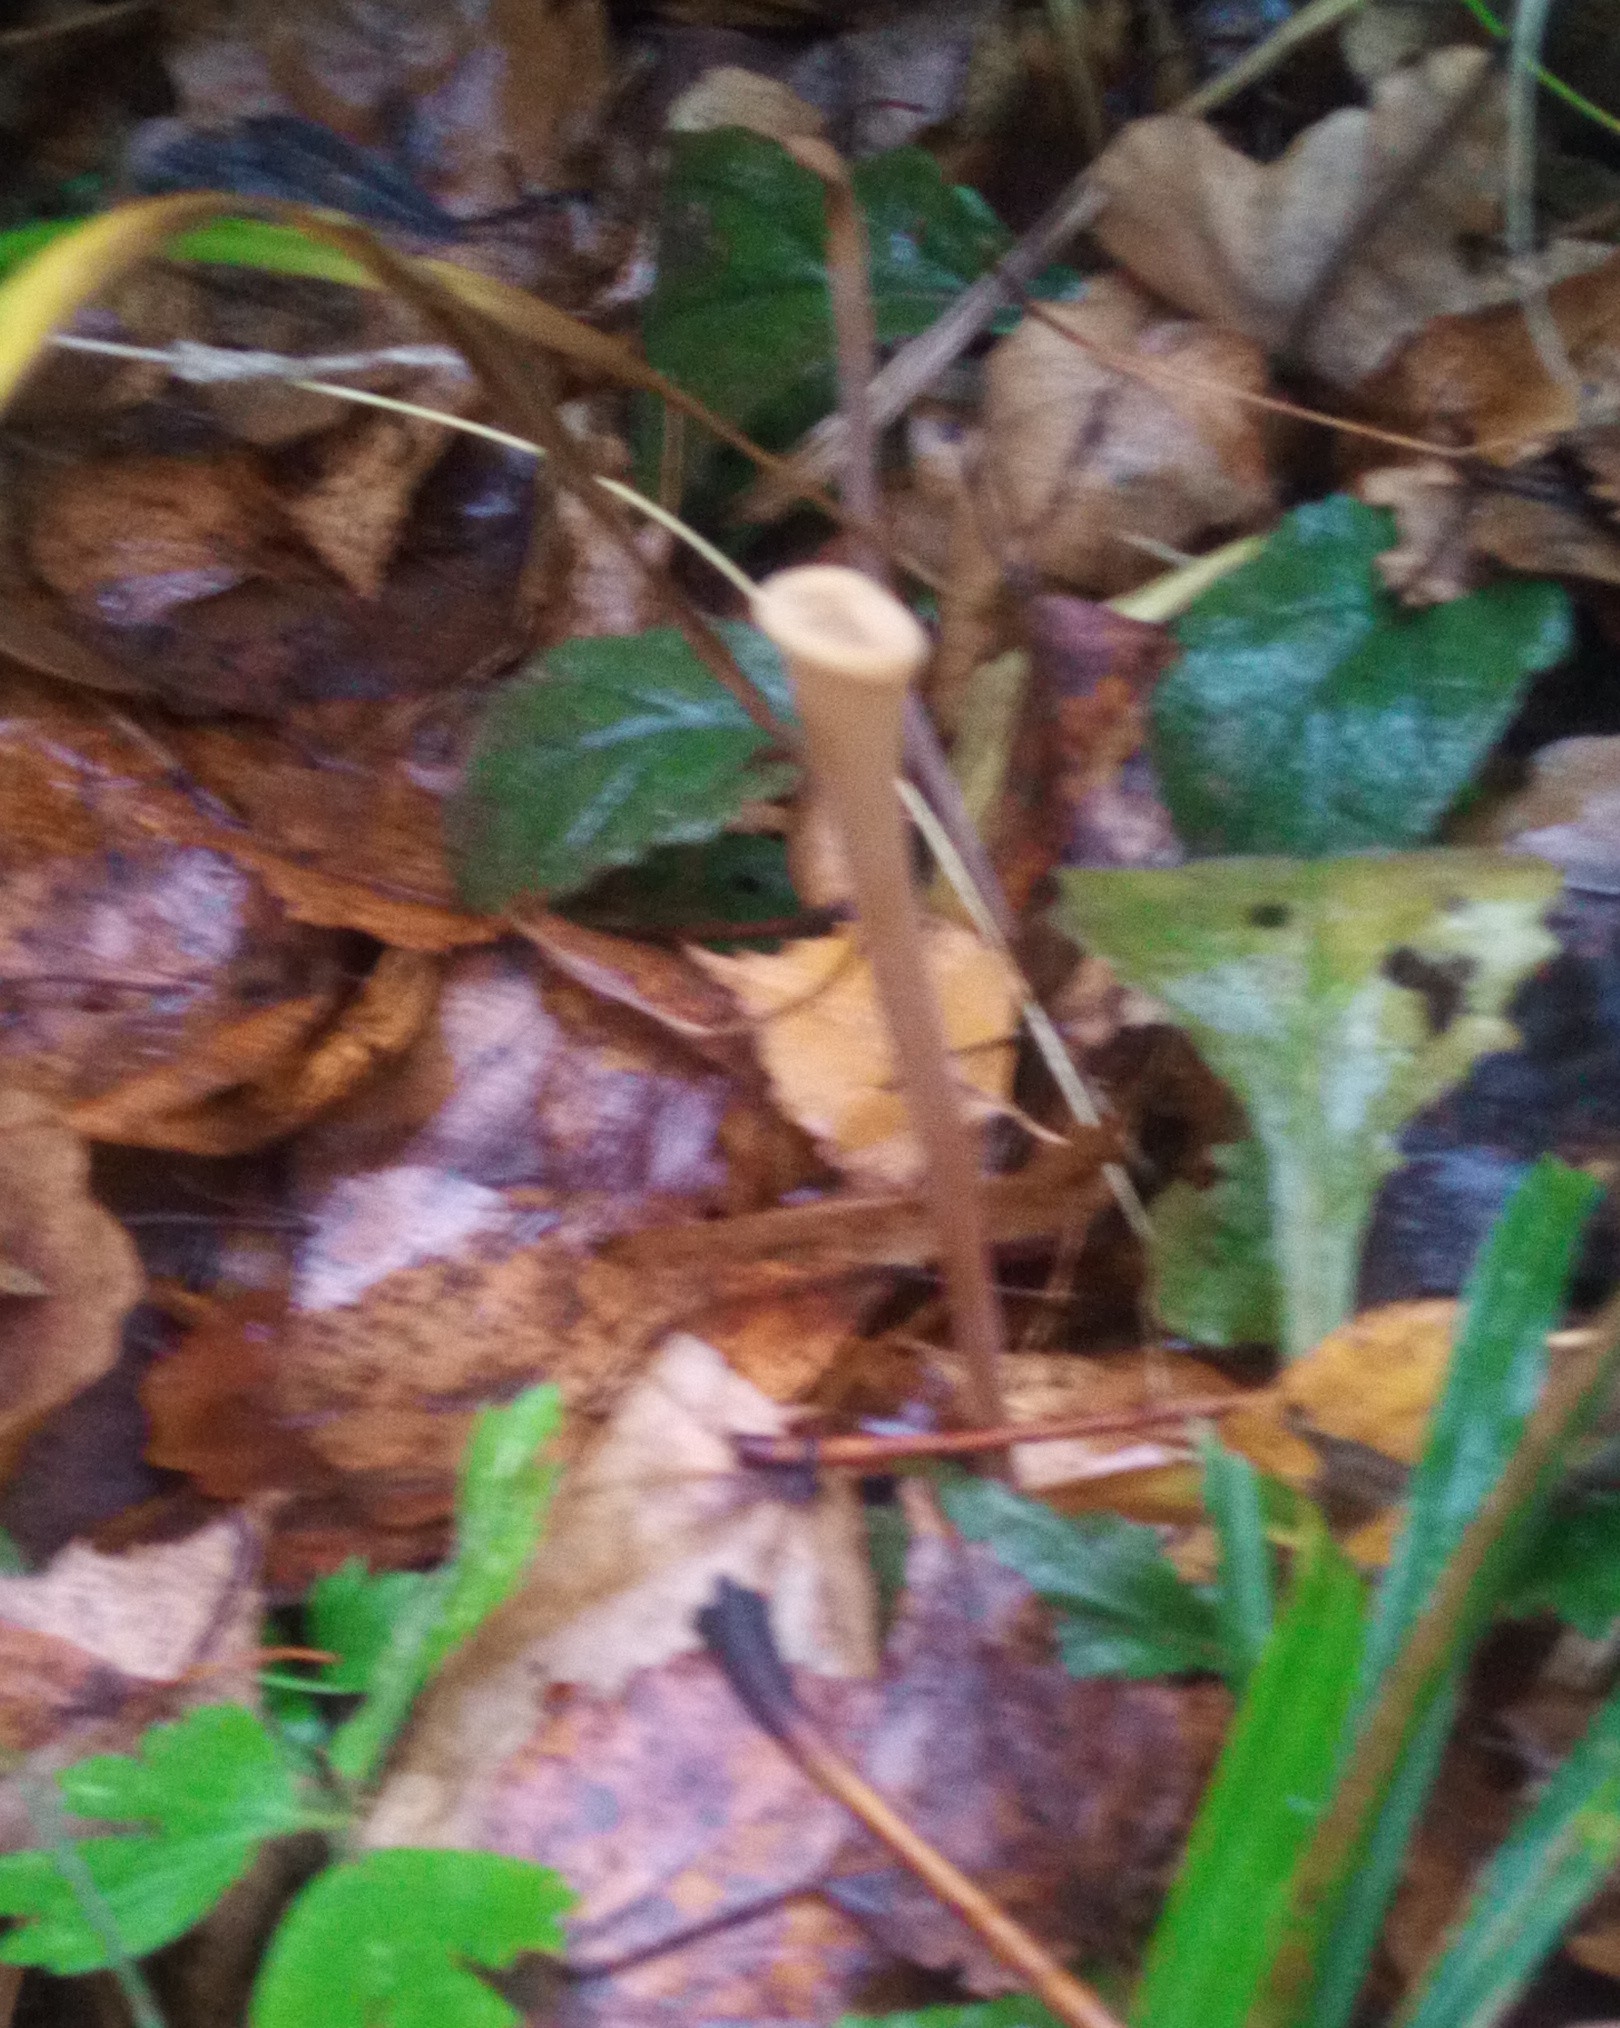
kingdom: Fungi
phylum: Basidiomycota
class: Agaricomycetes
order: Agaricales
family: Typhulaceae
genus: Typhula
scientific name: Typhula fistulosa
